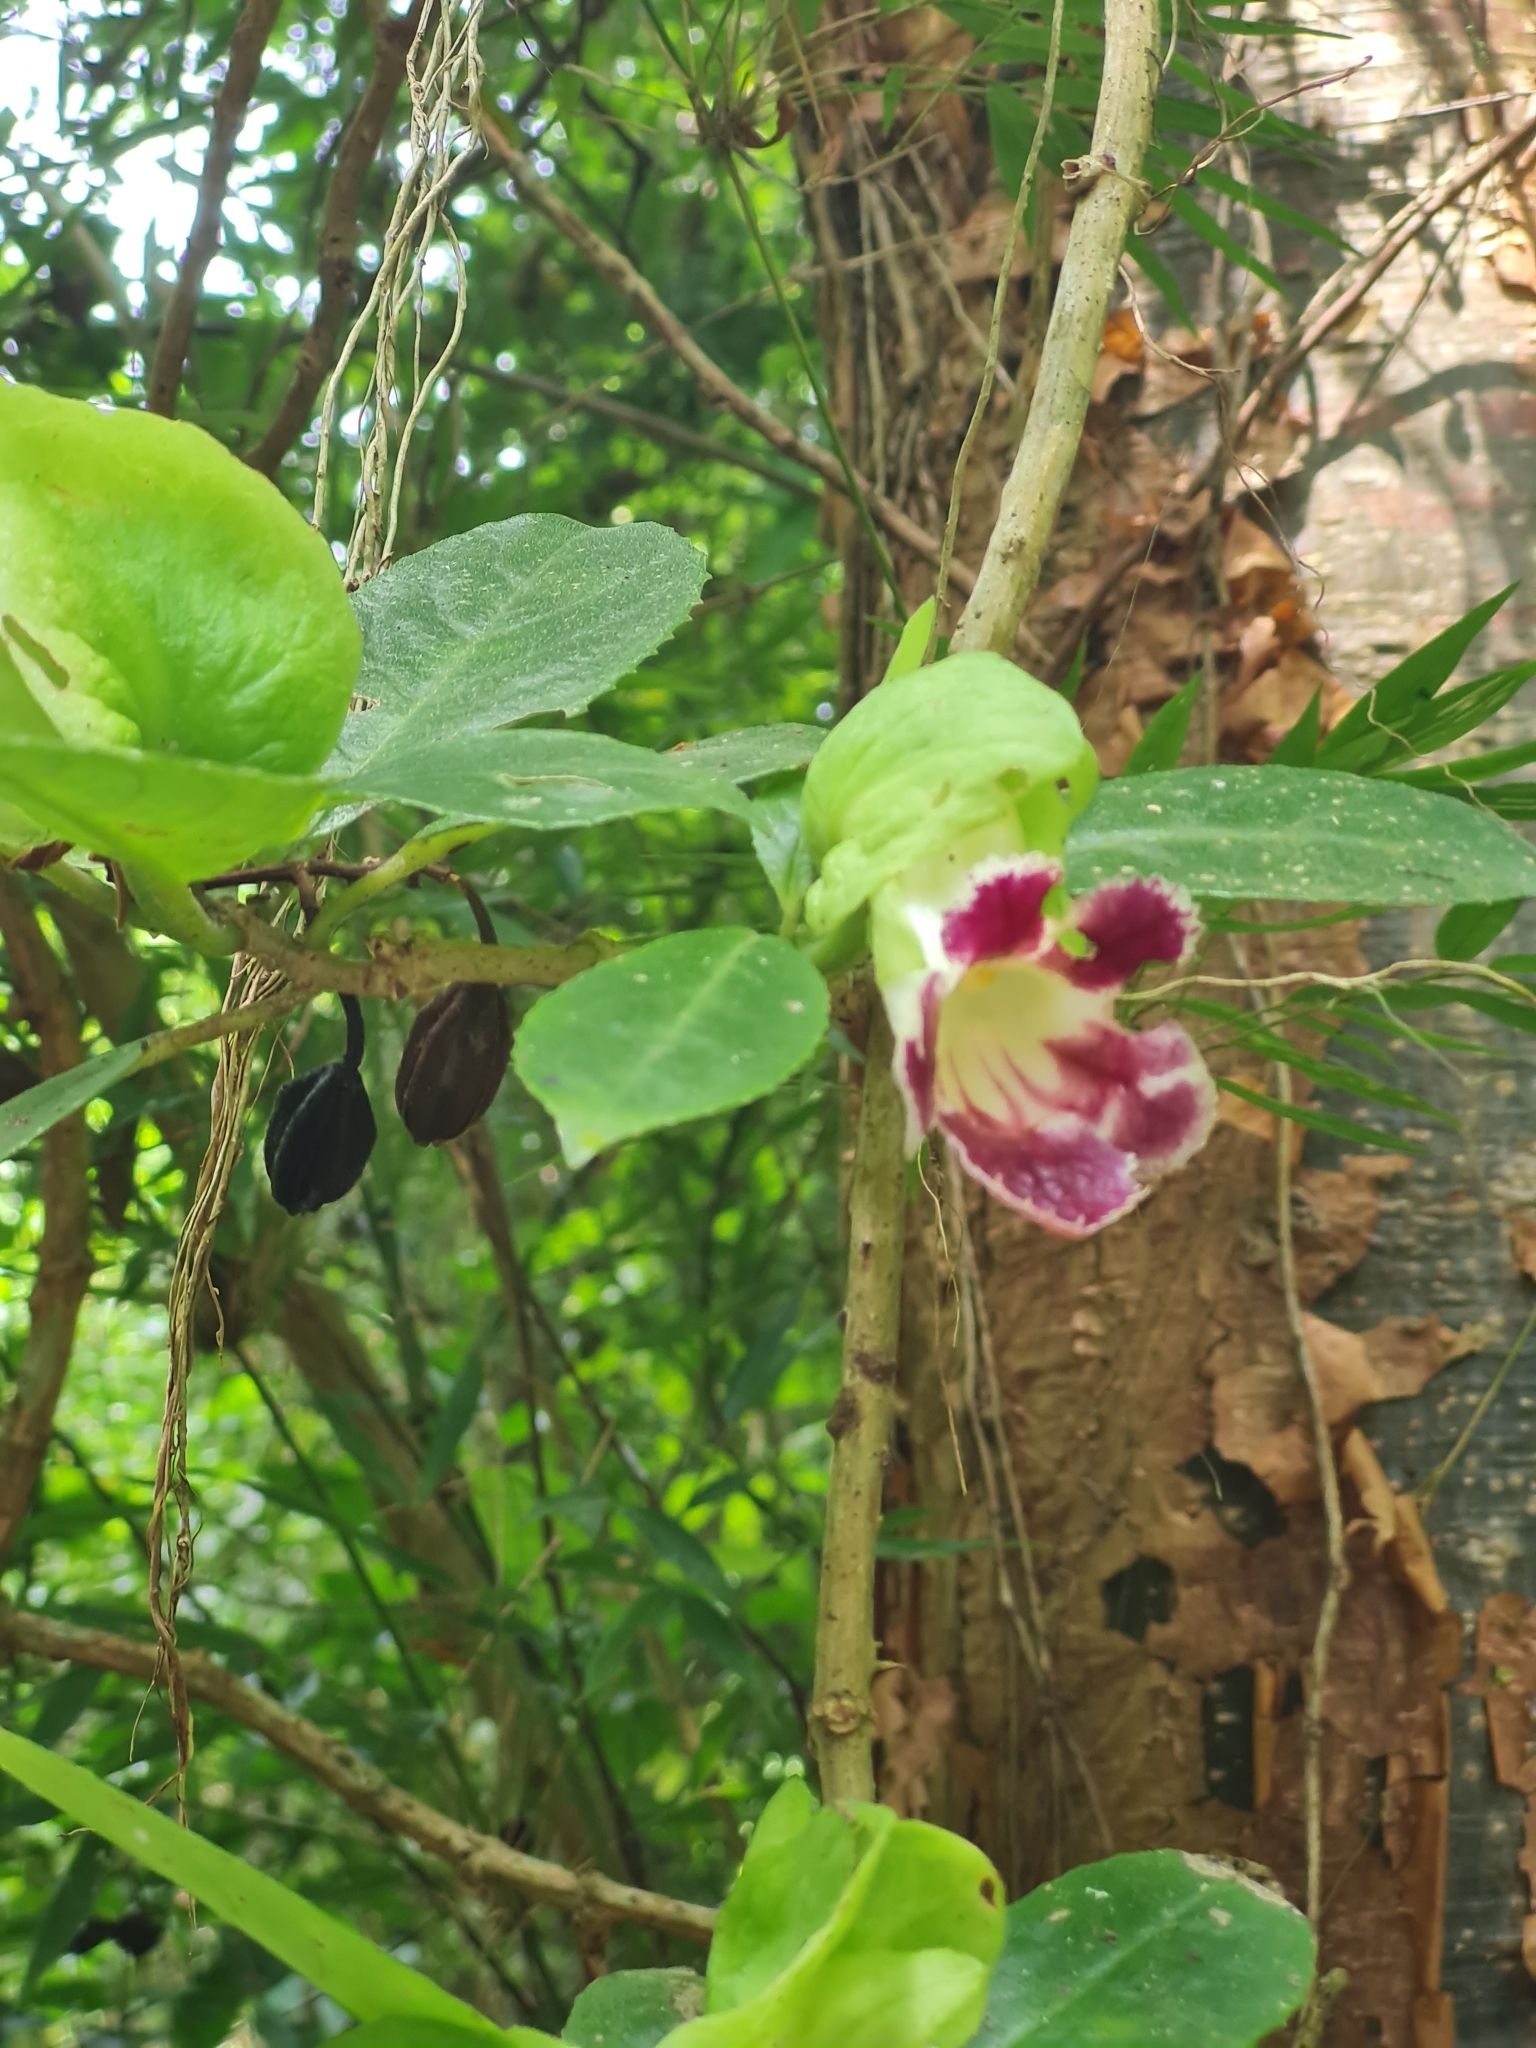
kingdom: Plantae
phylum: Tracheophyta
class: Magnoliopsida
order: Lamiales
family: Gesneriaceae
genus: Drymonia
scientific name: Drymonia serrulata
